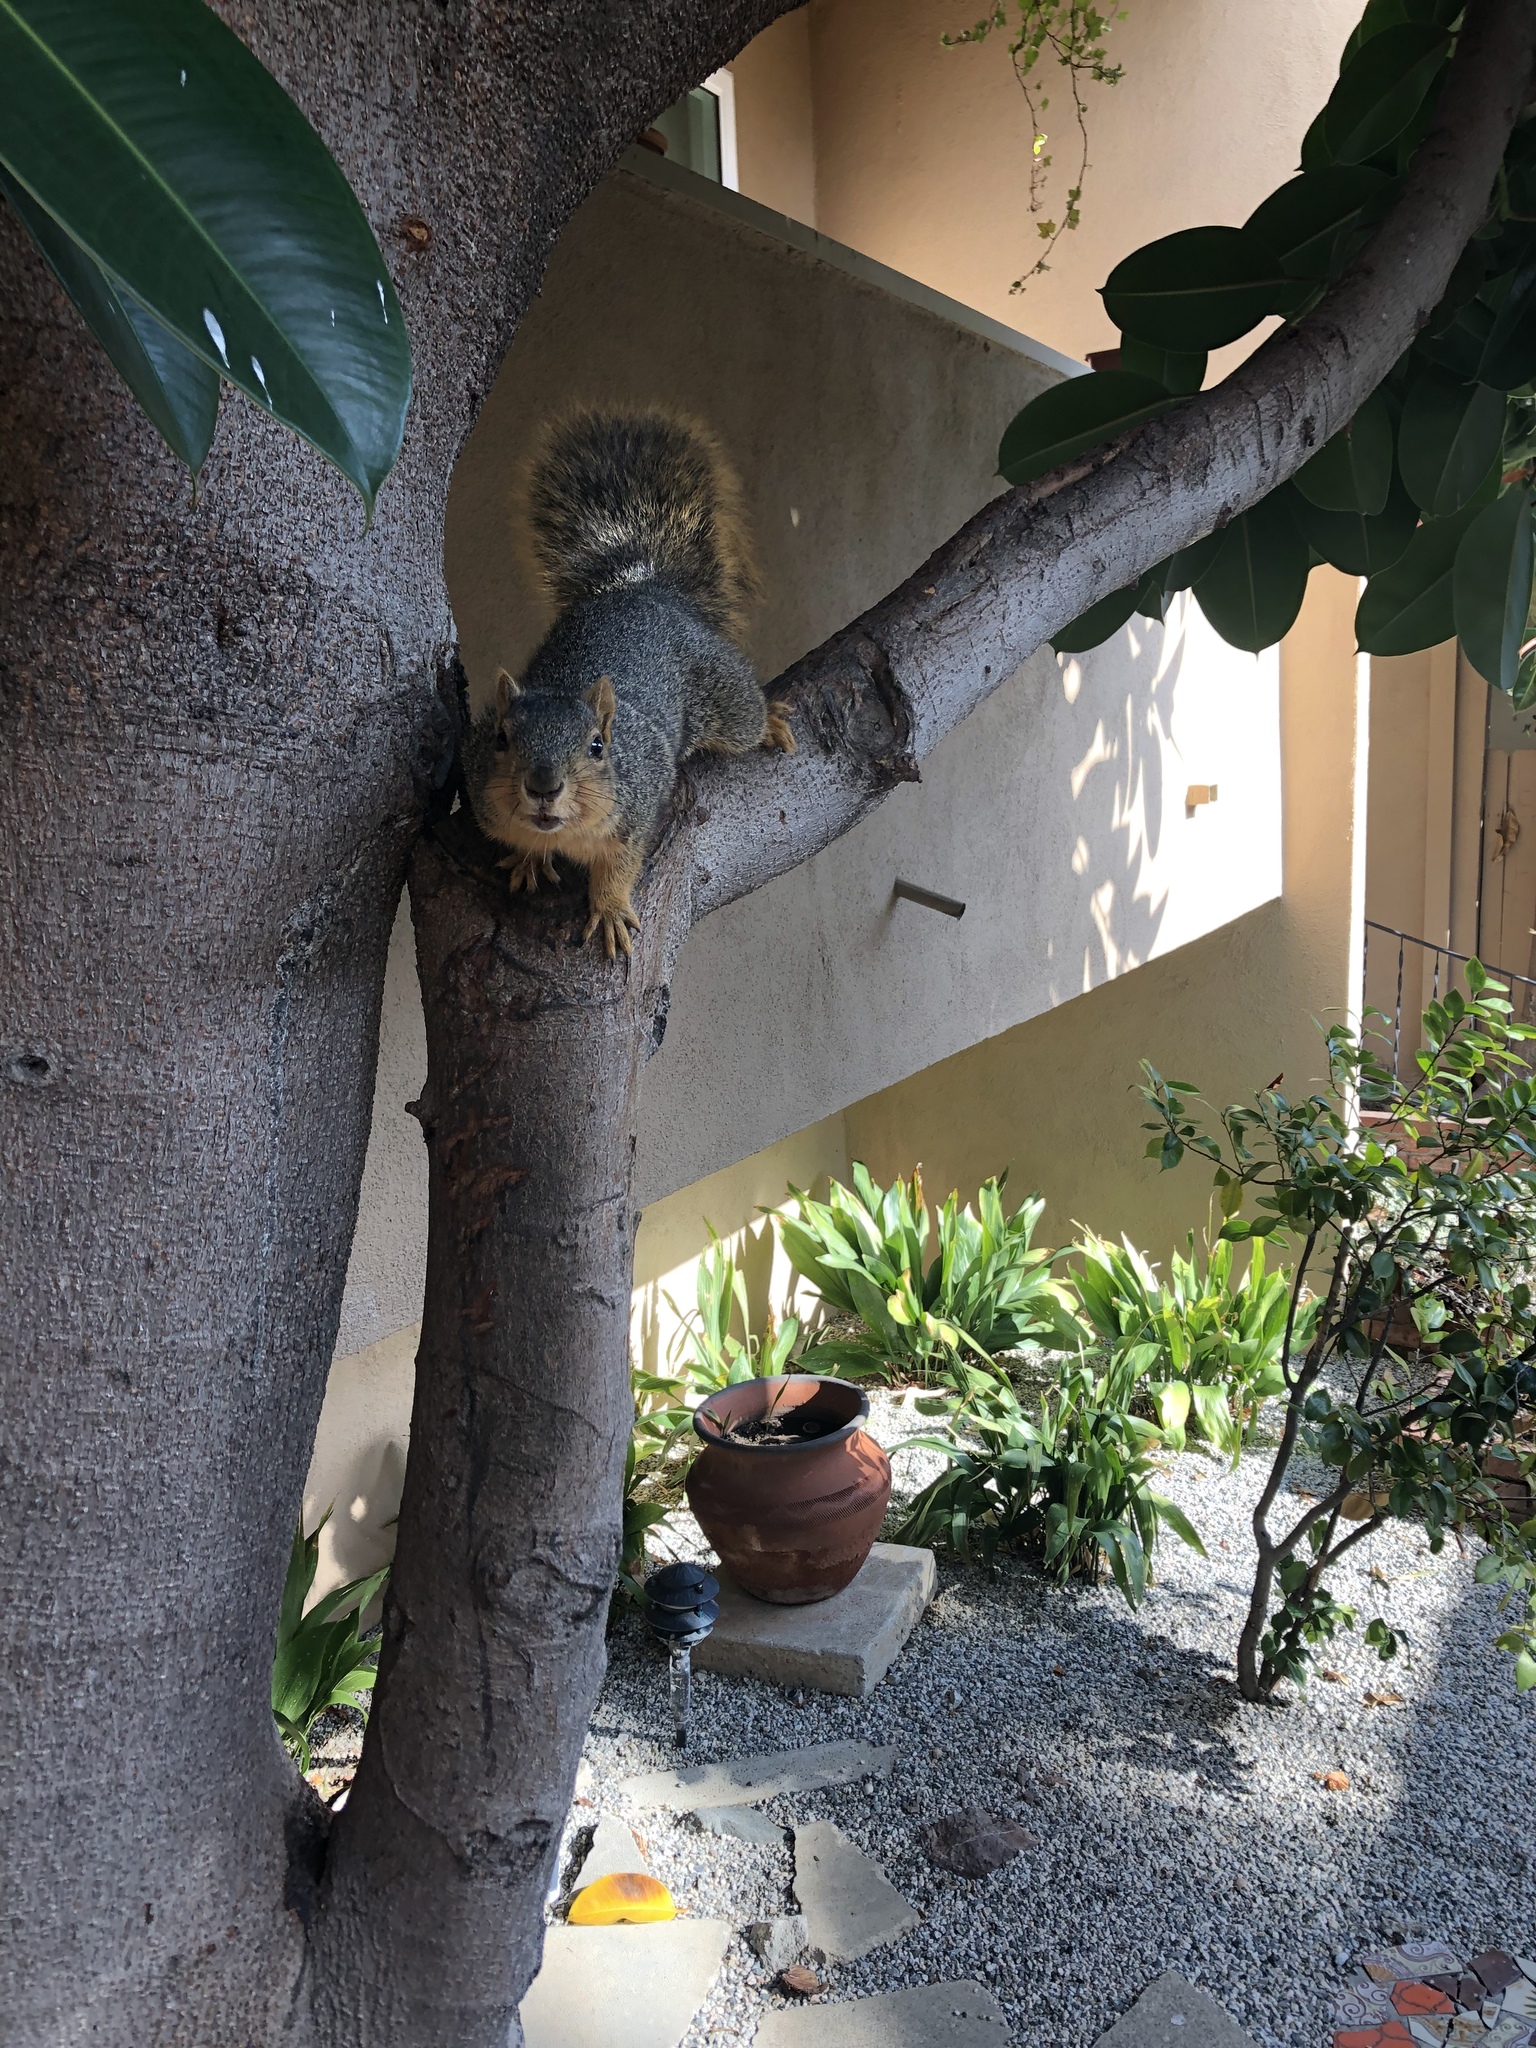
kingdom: Animalia
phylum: Chordata
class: Mammalia
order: Rodentia
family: Sciuridae
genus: Sciurus
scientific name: Sciurus niger
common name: Fox squirrel
